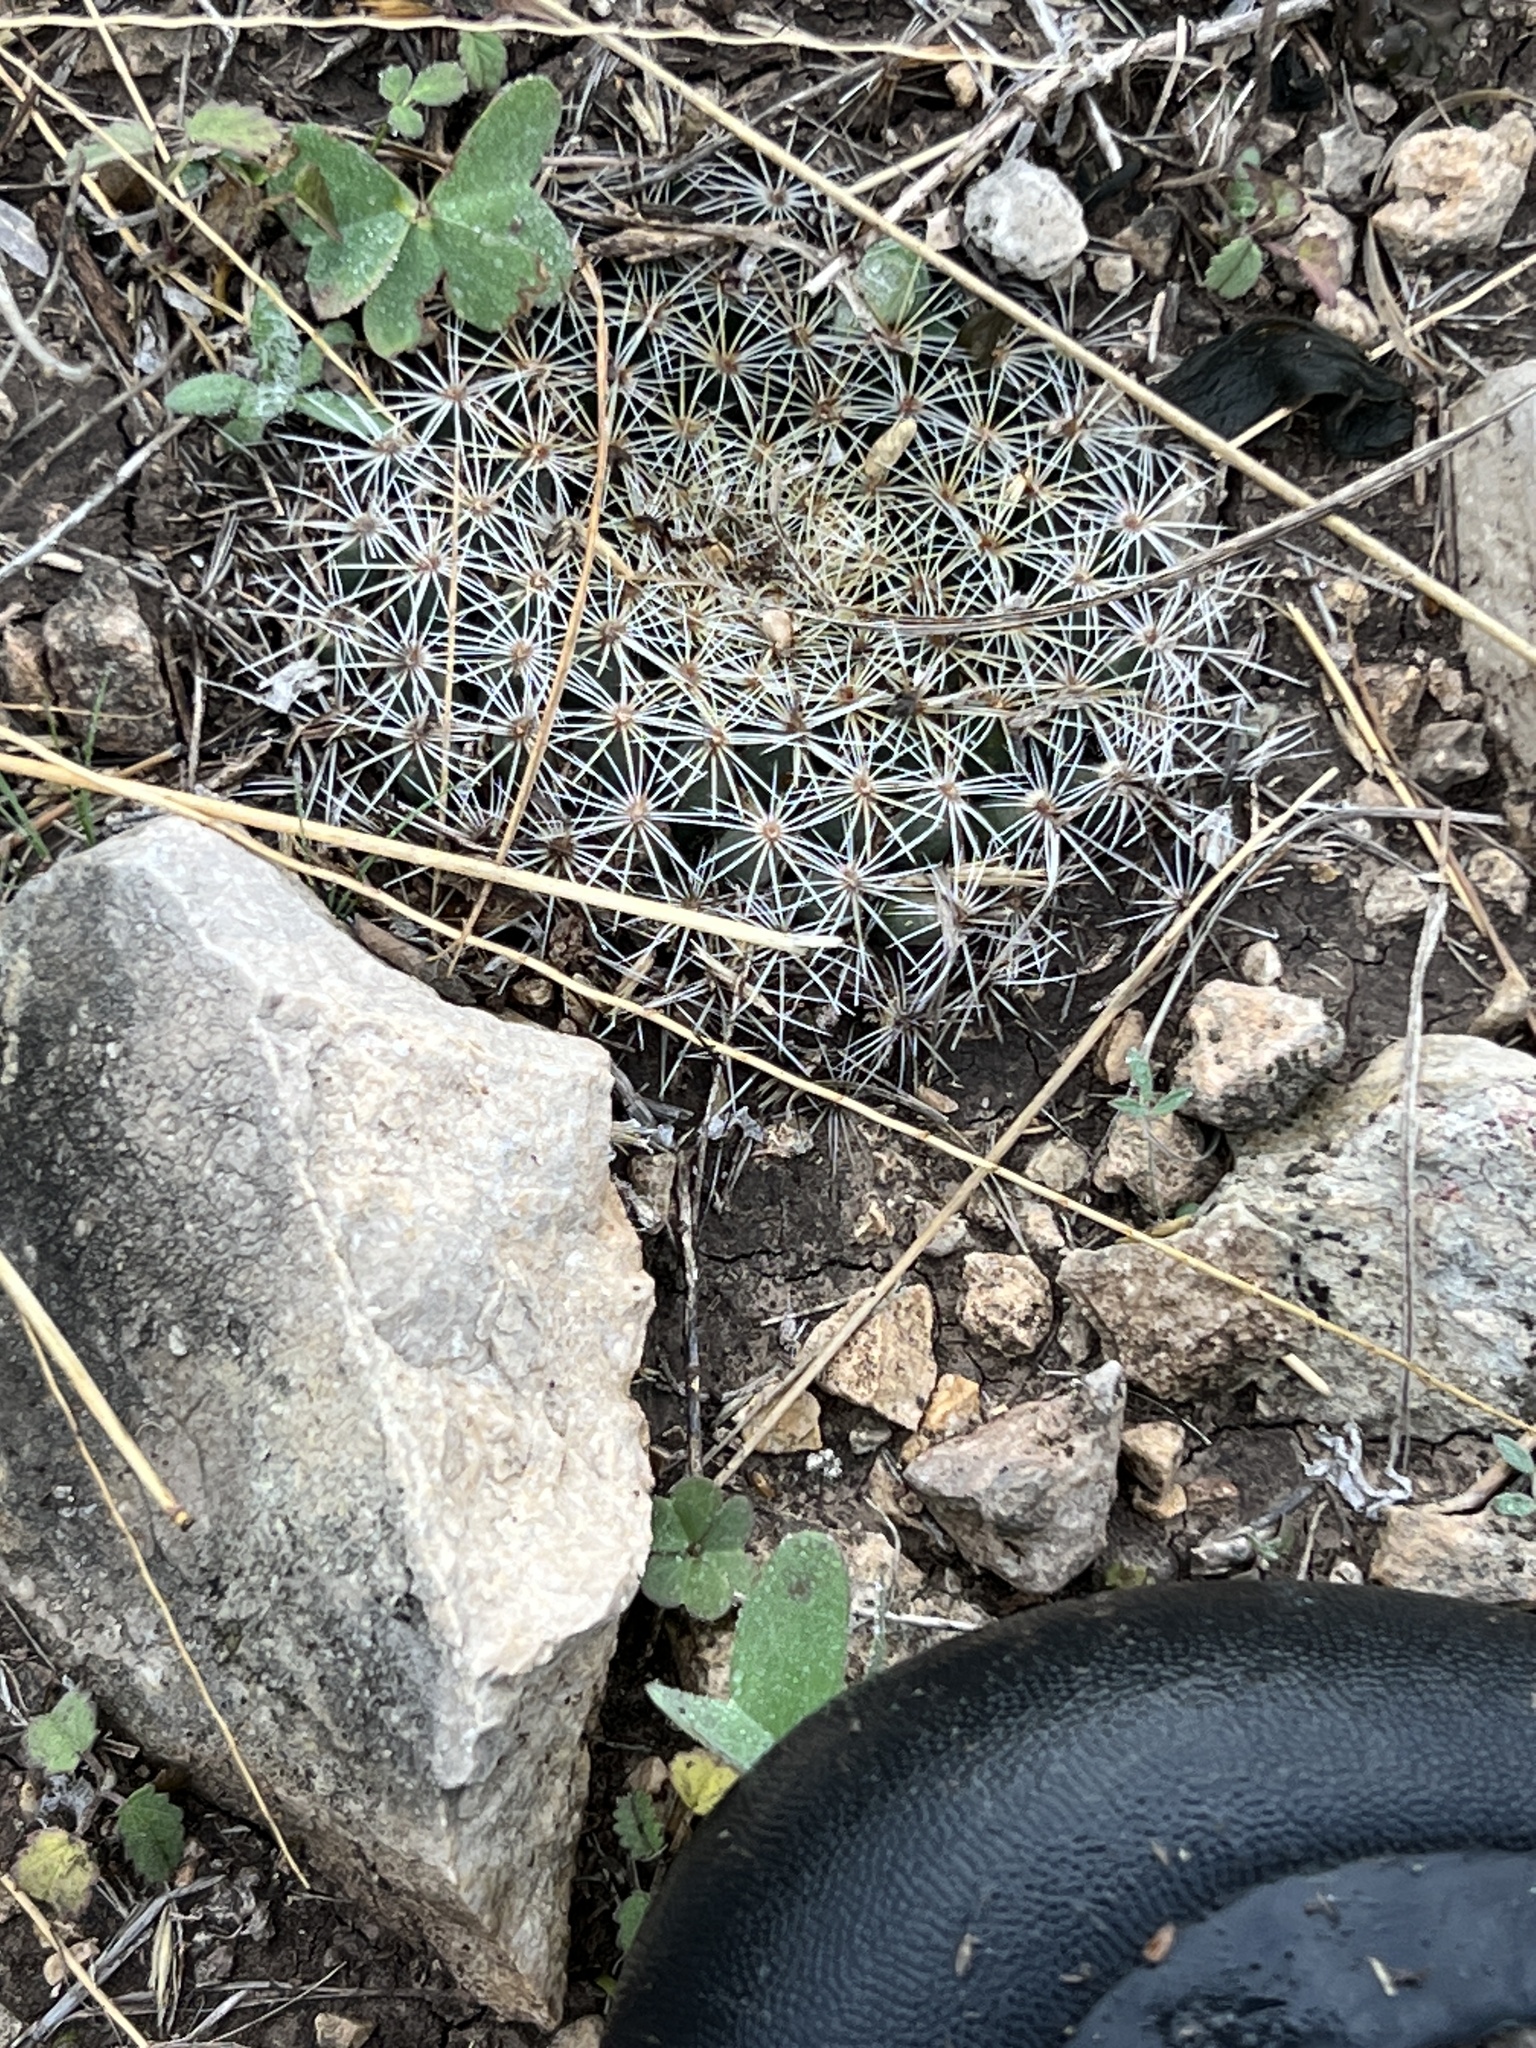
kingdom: Plantae
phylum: Tracheophyta
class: Magnoliopsida
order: Caryophyllales
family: Cactaceae
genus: Mammillaria
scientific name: Mammillaria heyderi
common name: Little nipple cactus
